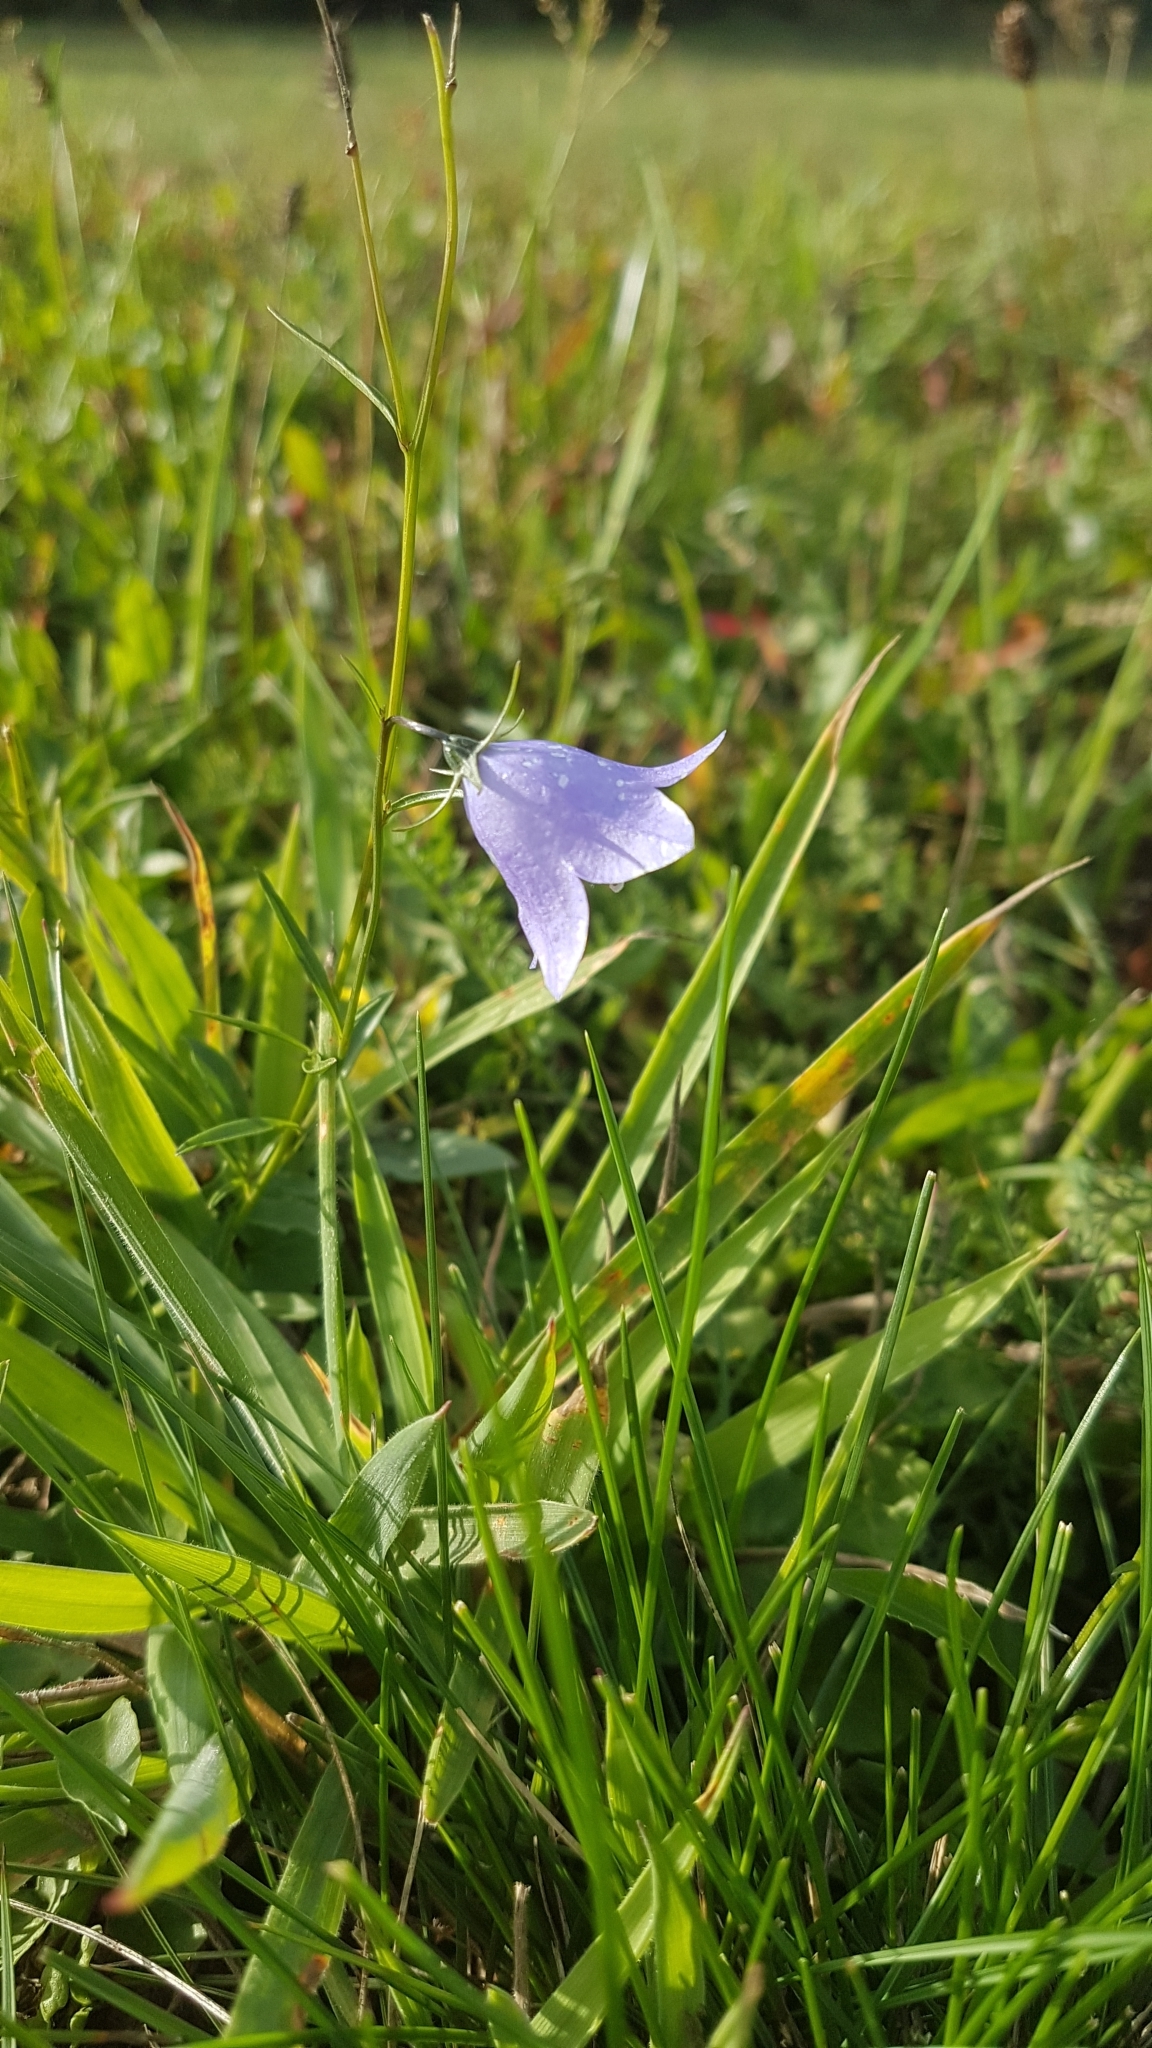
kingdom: Plantae
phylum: Tracheophyta
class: Magnoliopsida
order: Asterales
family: Campanulaceae
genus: Campanula
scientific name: Campanula rotundifolia
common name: Harebell
